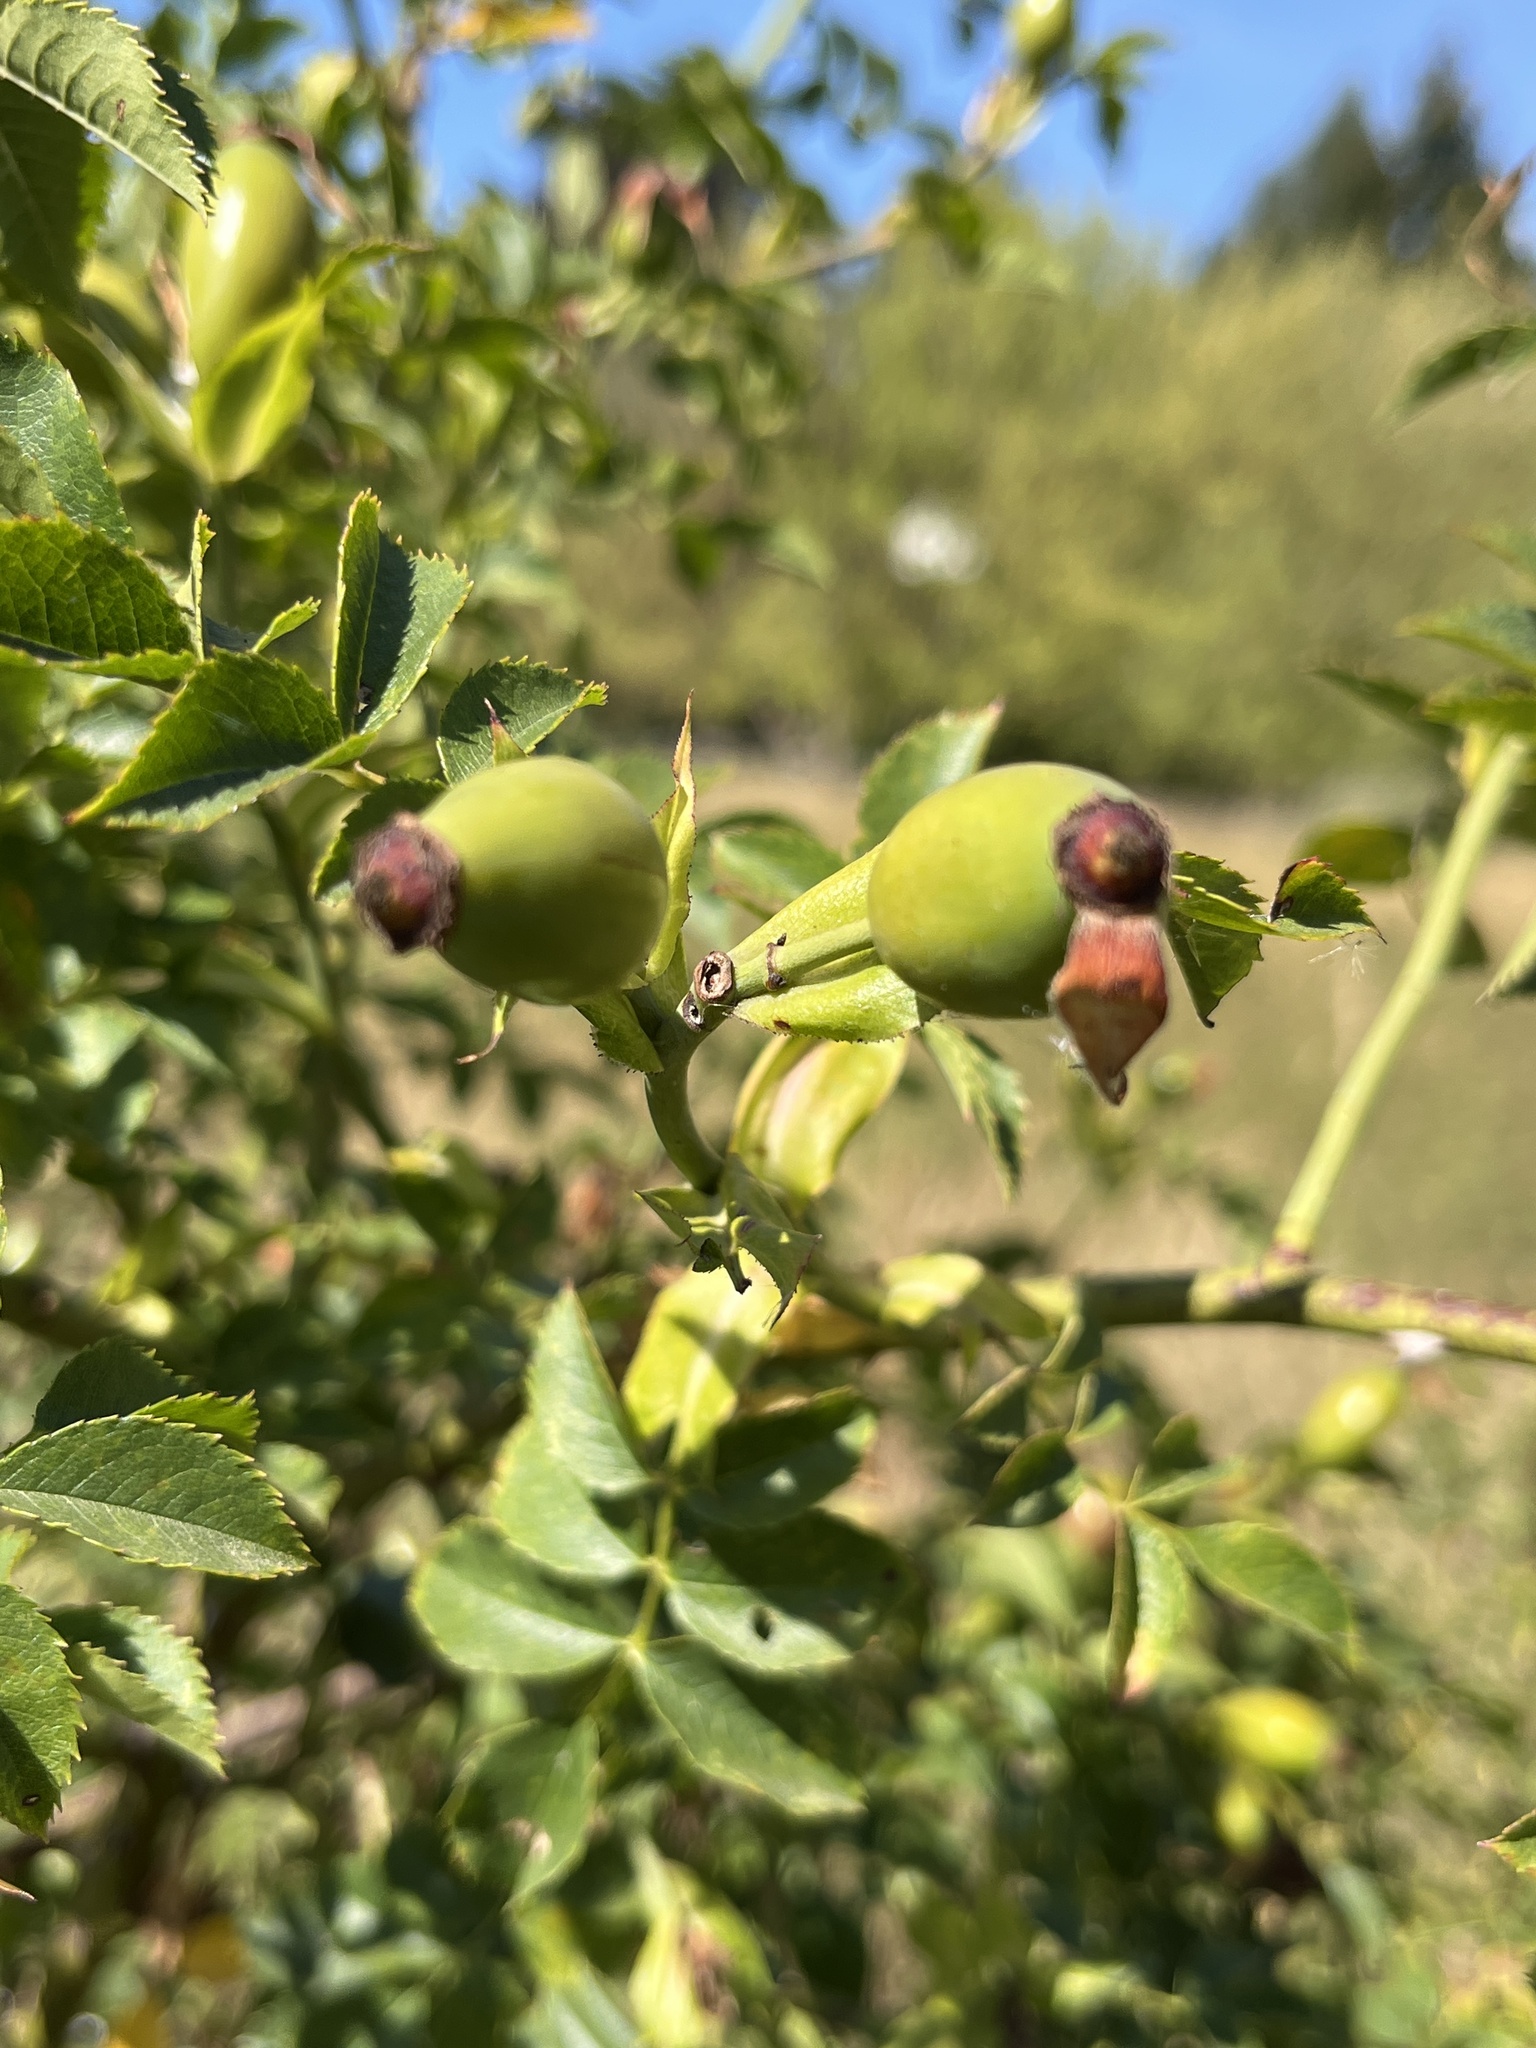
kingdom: Animalia
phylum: Arthropoda
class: Insecta
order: Hymenoptera
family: Cynipidae
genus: Diplolepis
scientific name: Diplolepis rosae
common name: Bedeguar gall
